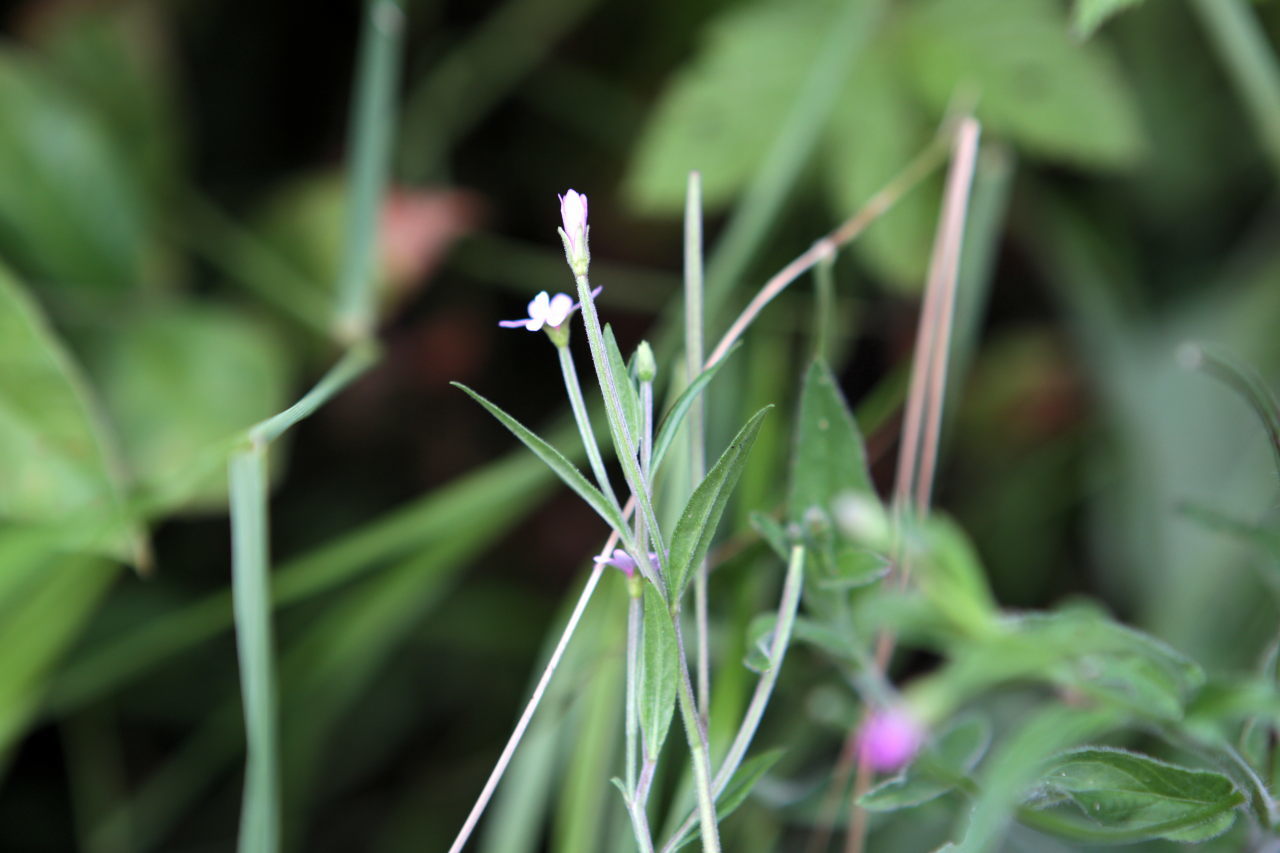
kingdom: Plantae
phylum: Tracheophyta
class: Magnoliopsida
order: Myrtales
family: Onagraceae
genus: Epilobium
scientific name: Epilobium palustre
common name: Marsh willowherb
